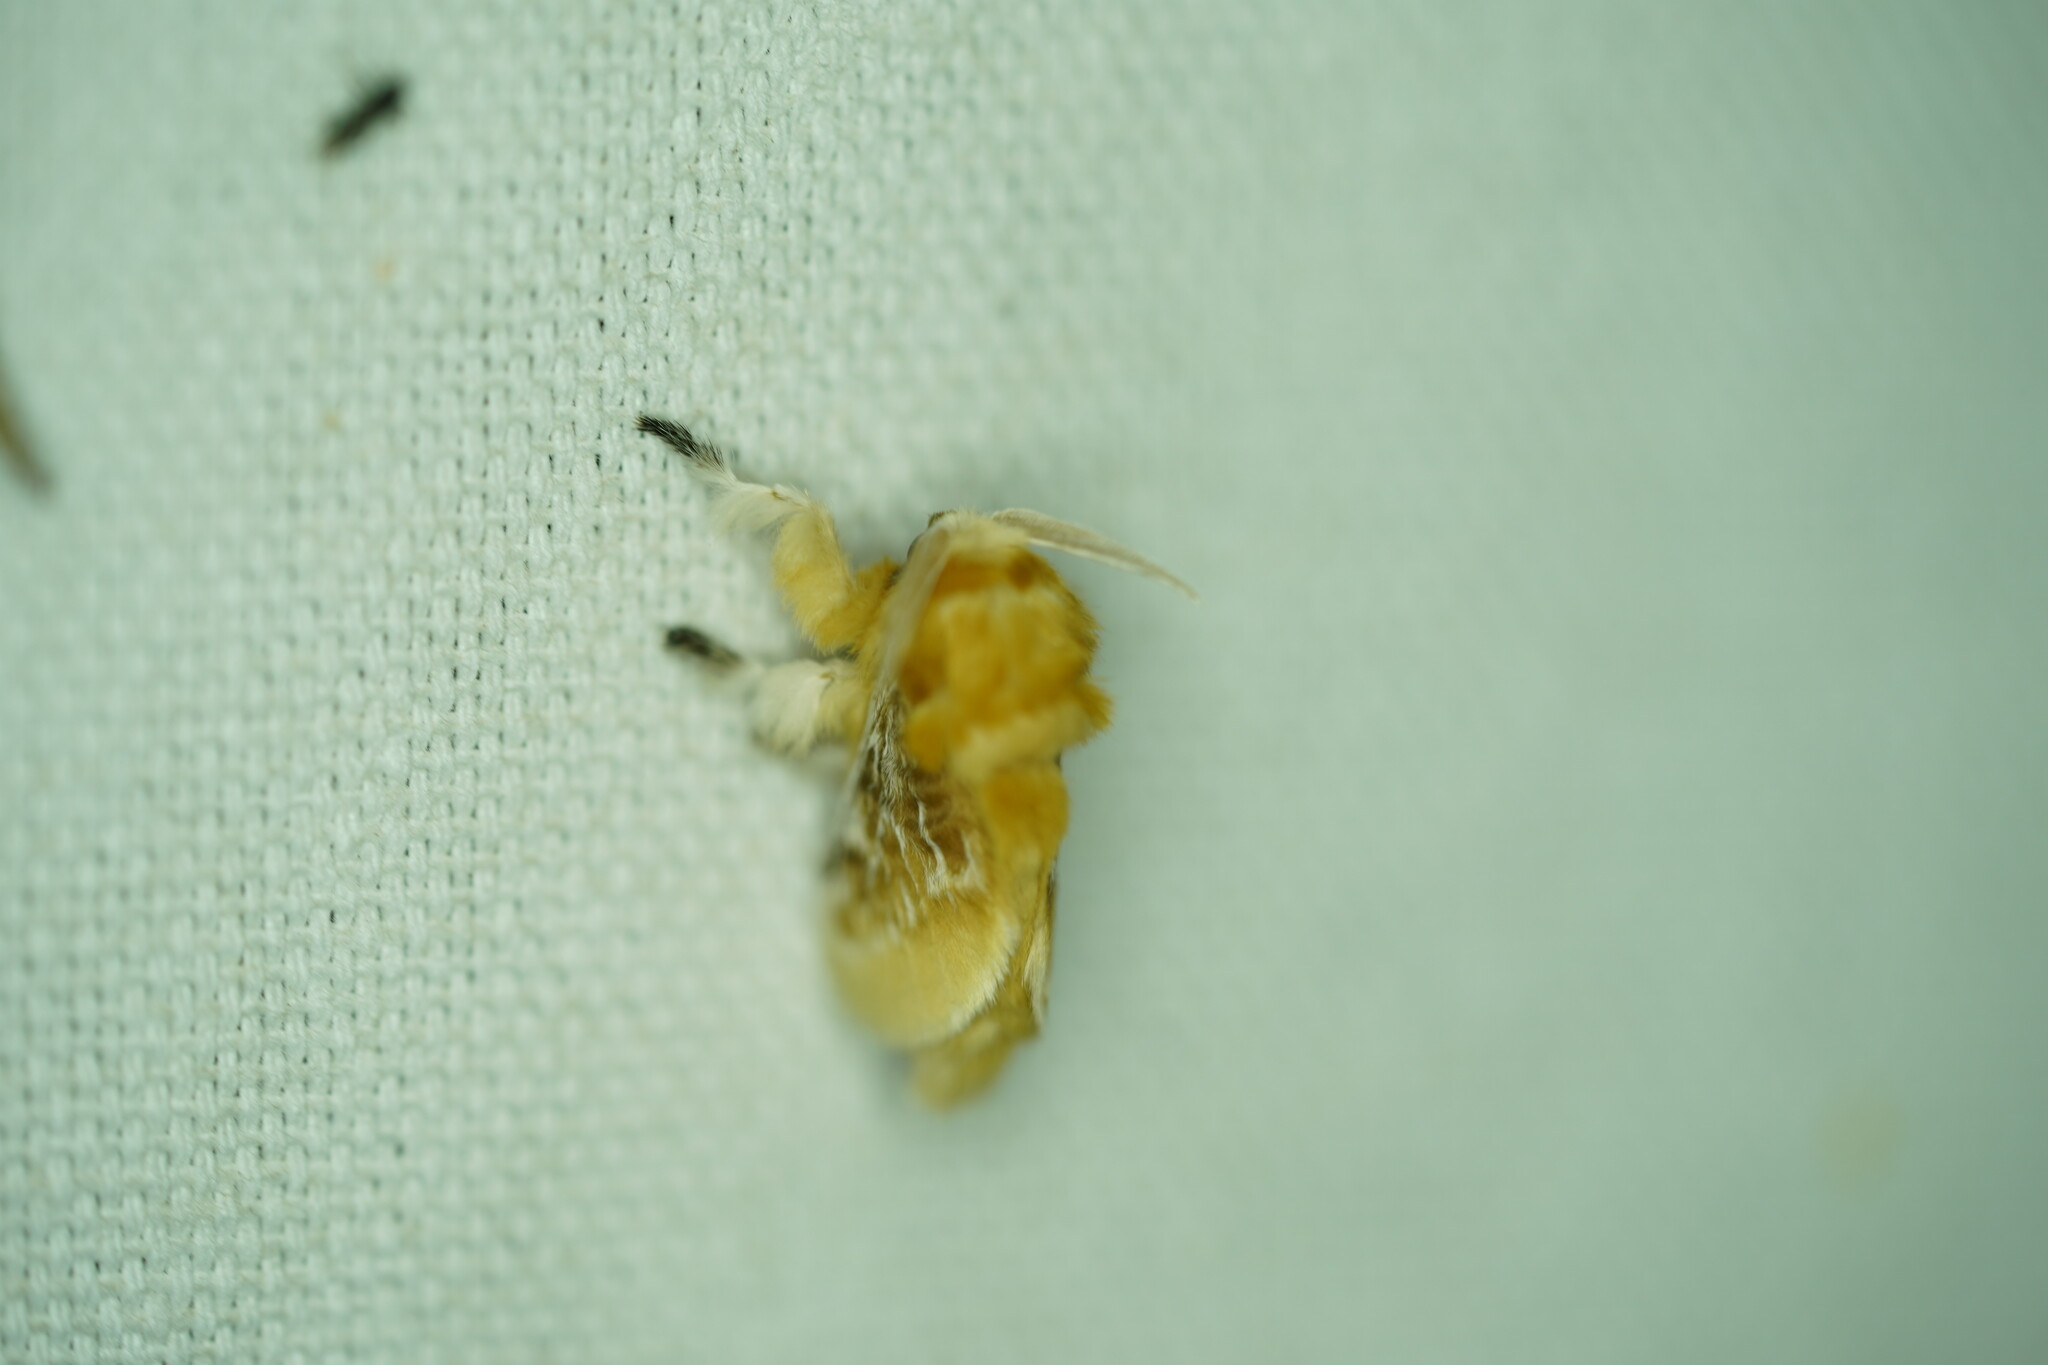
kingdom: Animalia
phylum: Arthropoda
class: Insecta
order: Lepidoptera
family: Megalopygidae
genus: Megalopyge
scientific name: Megalopyge opercularis
